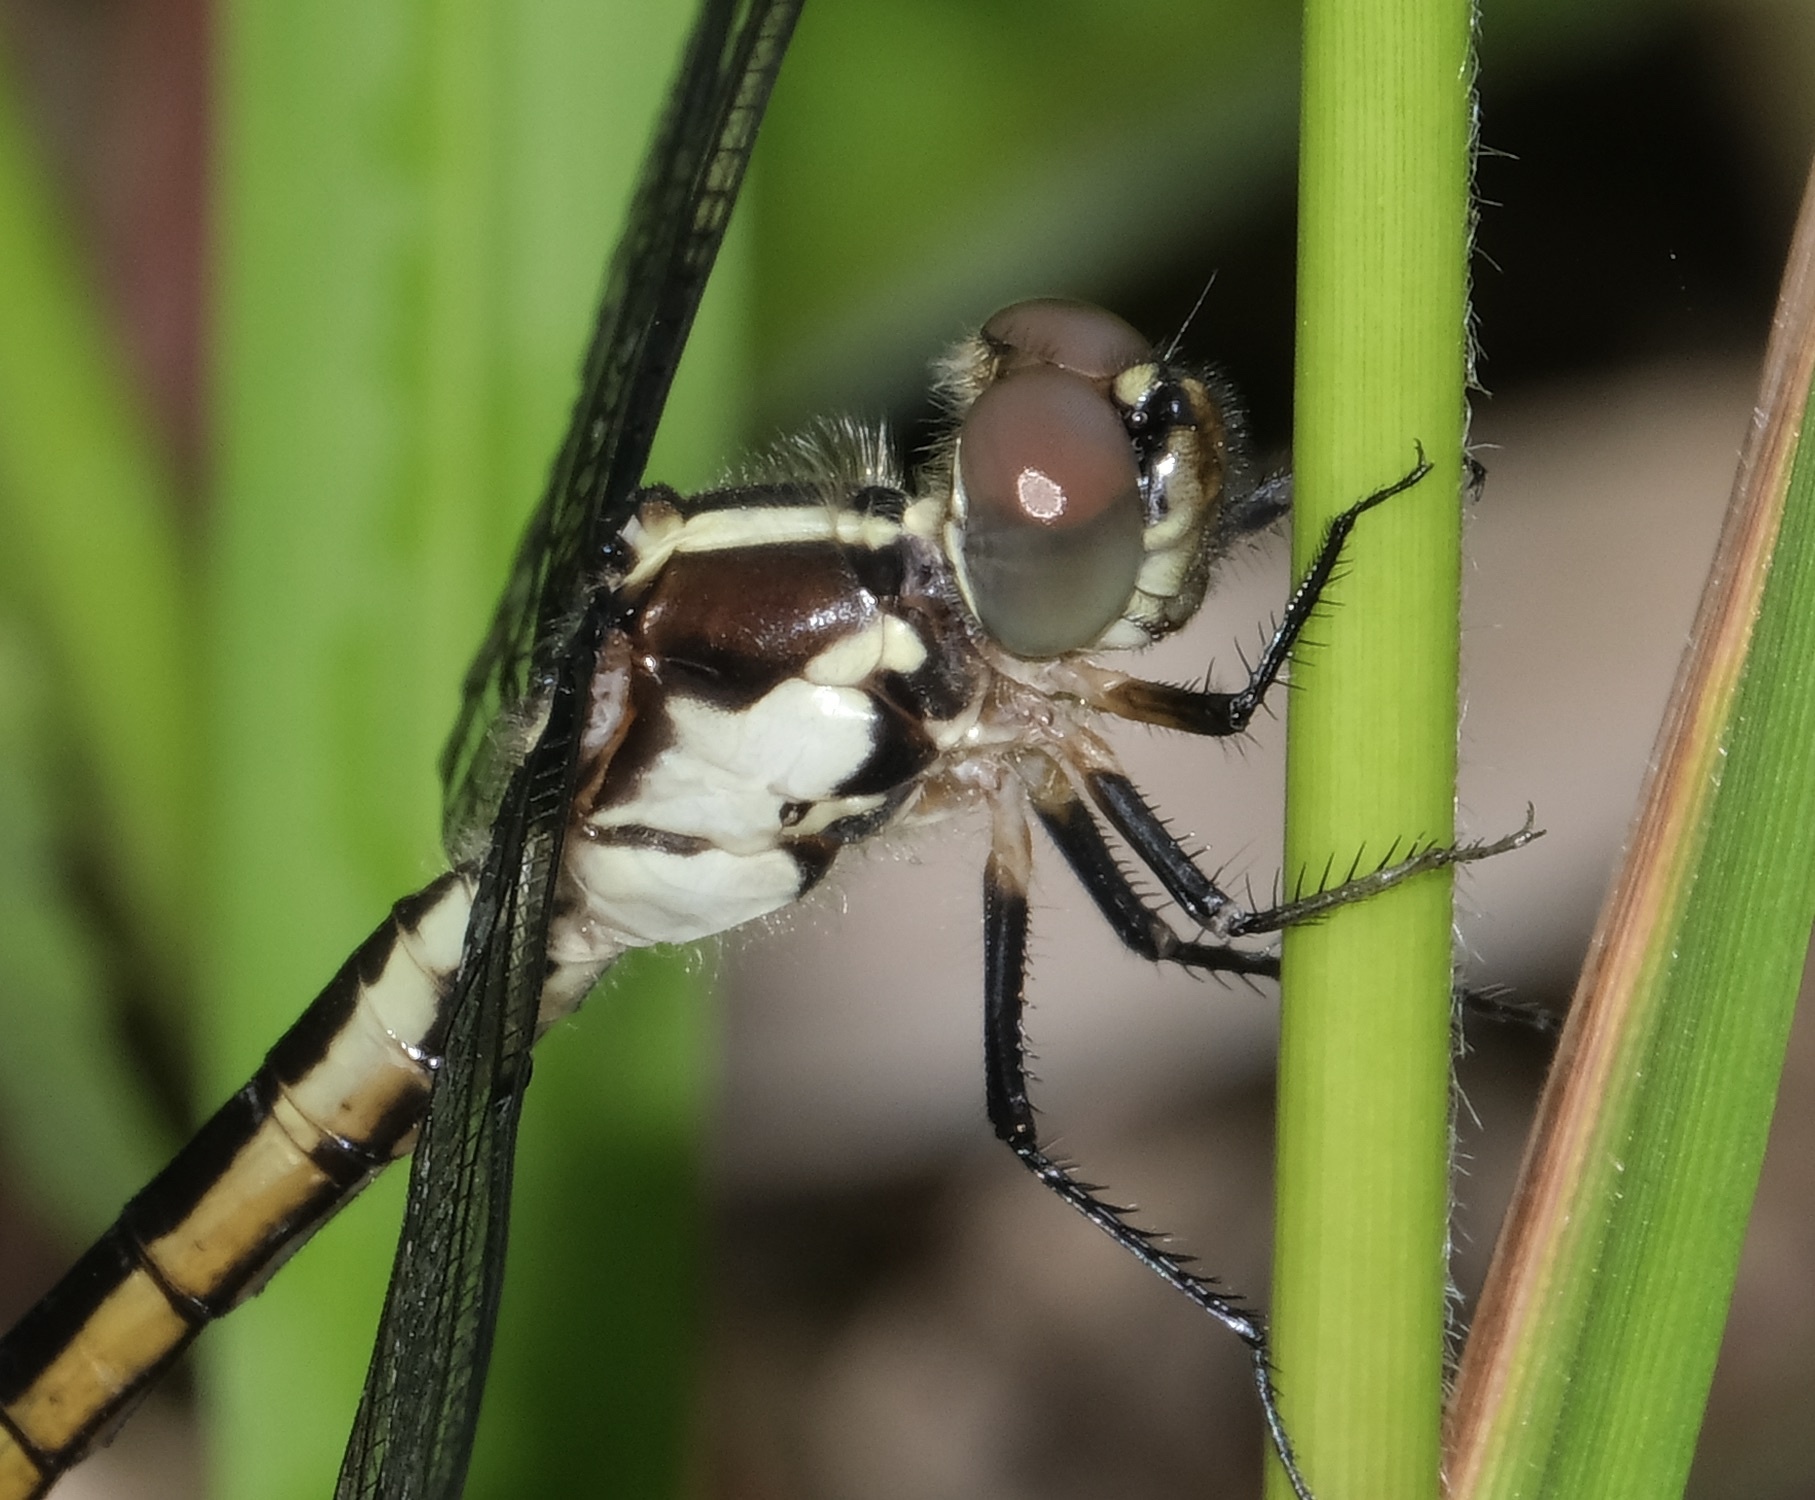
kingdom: Animalia
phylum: Arthropoda
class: Insecta
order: Odonata
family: Libellulidae
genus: Libellula
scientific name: Libellula incesta
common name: Slaty skimmer
